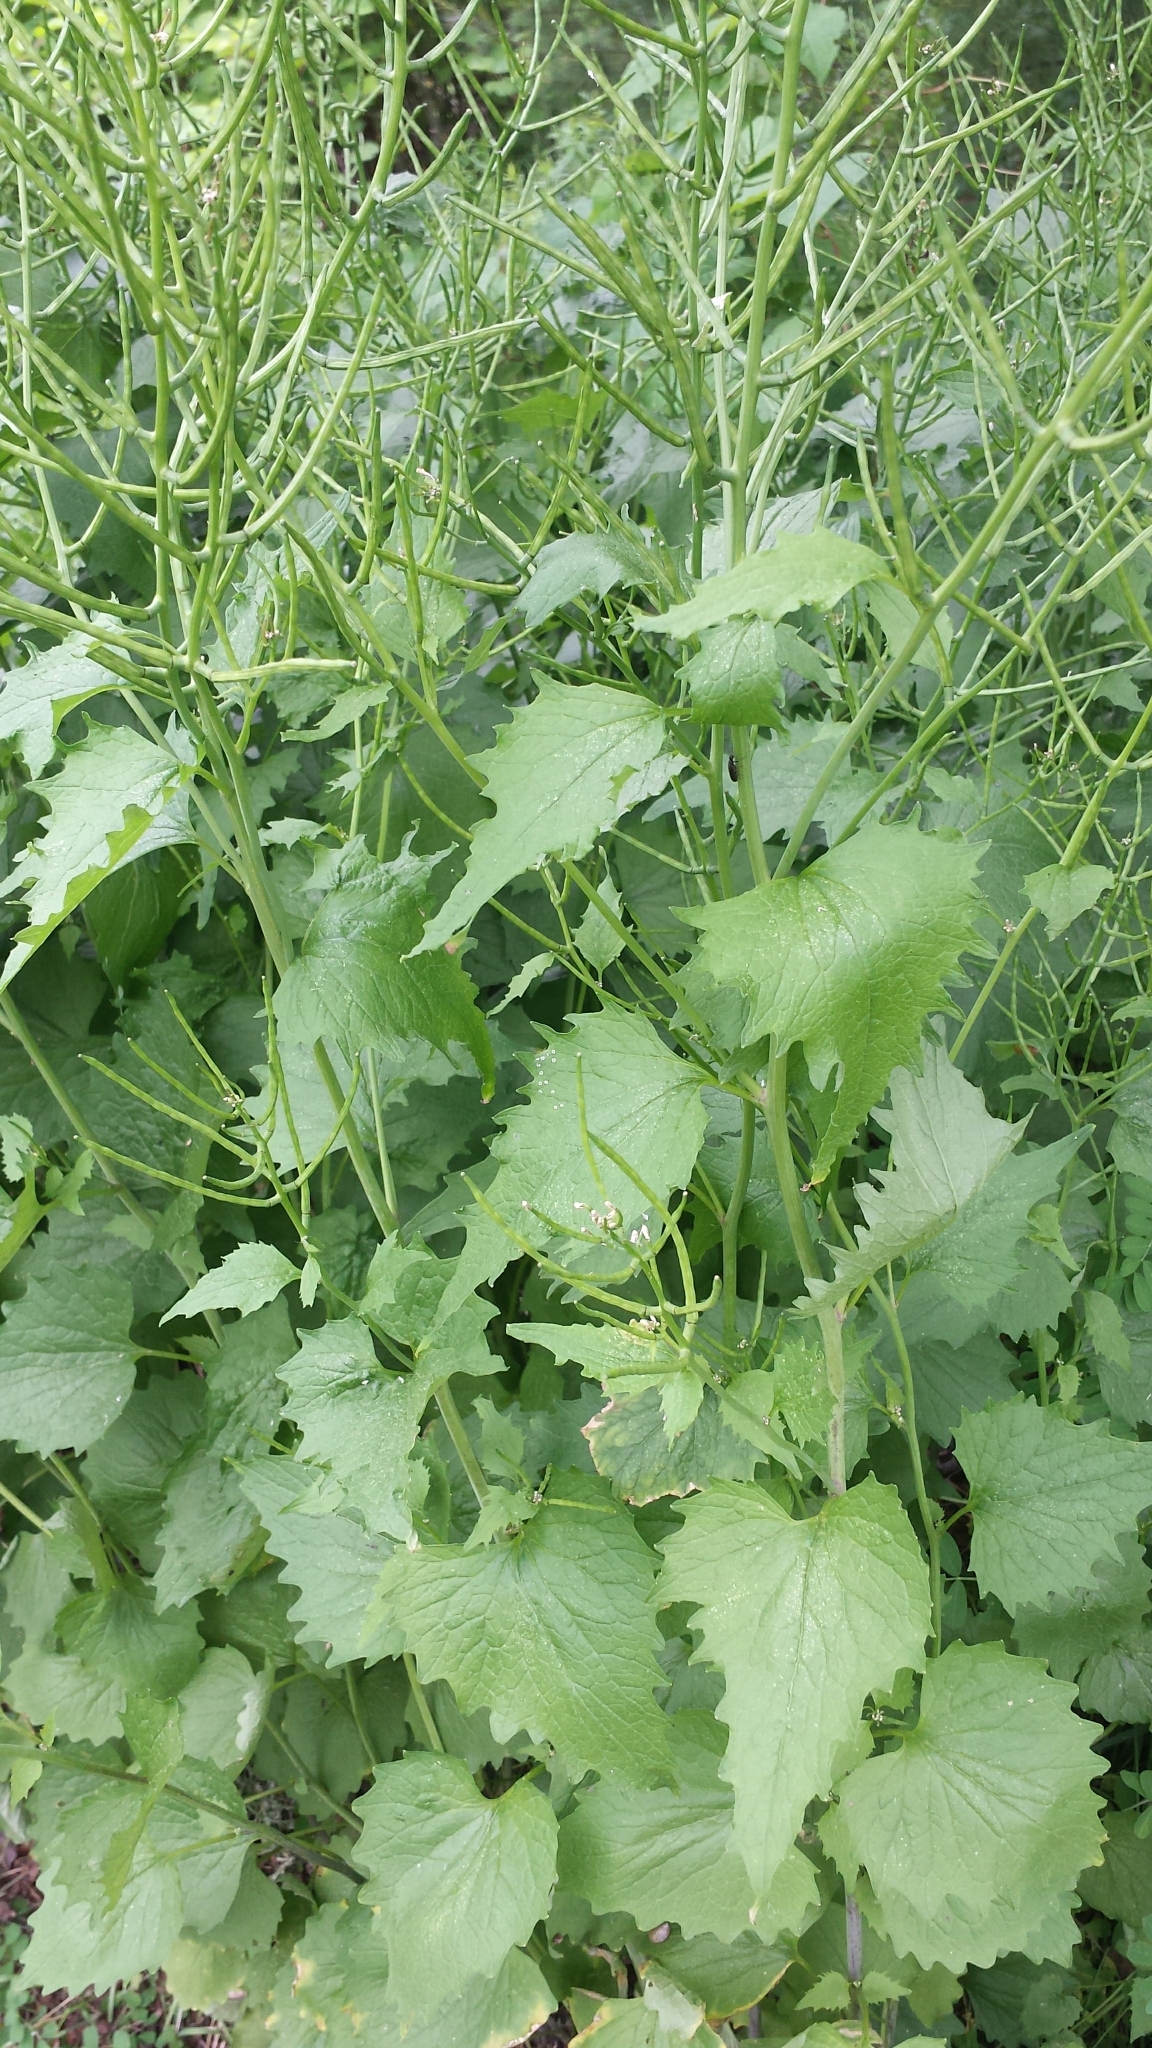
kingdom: Plantae
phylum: Tracheophyta
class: Magnoliopsida
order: Brassicales
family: Brassicaceae
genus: Alliaria
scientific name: Alliaria petiolata
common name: Garlic mustard
